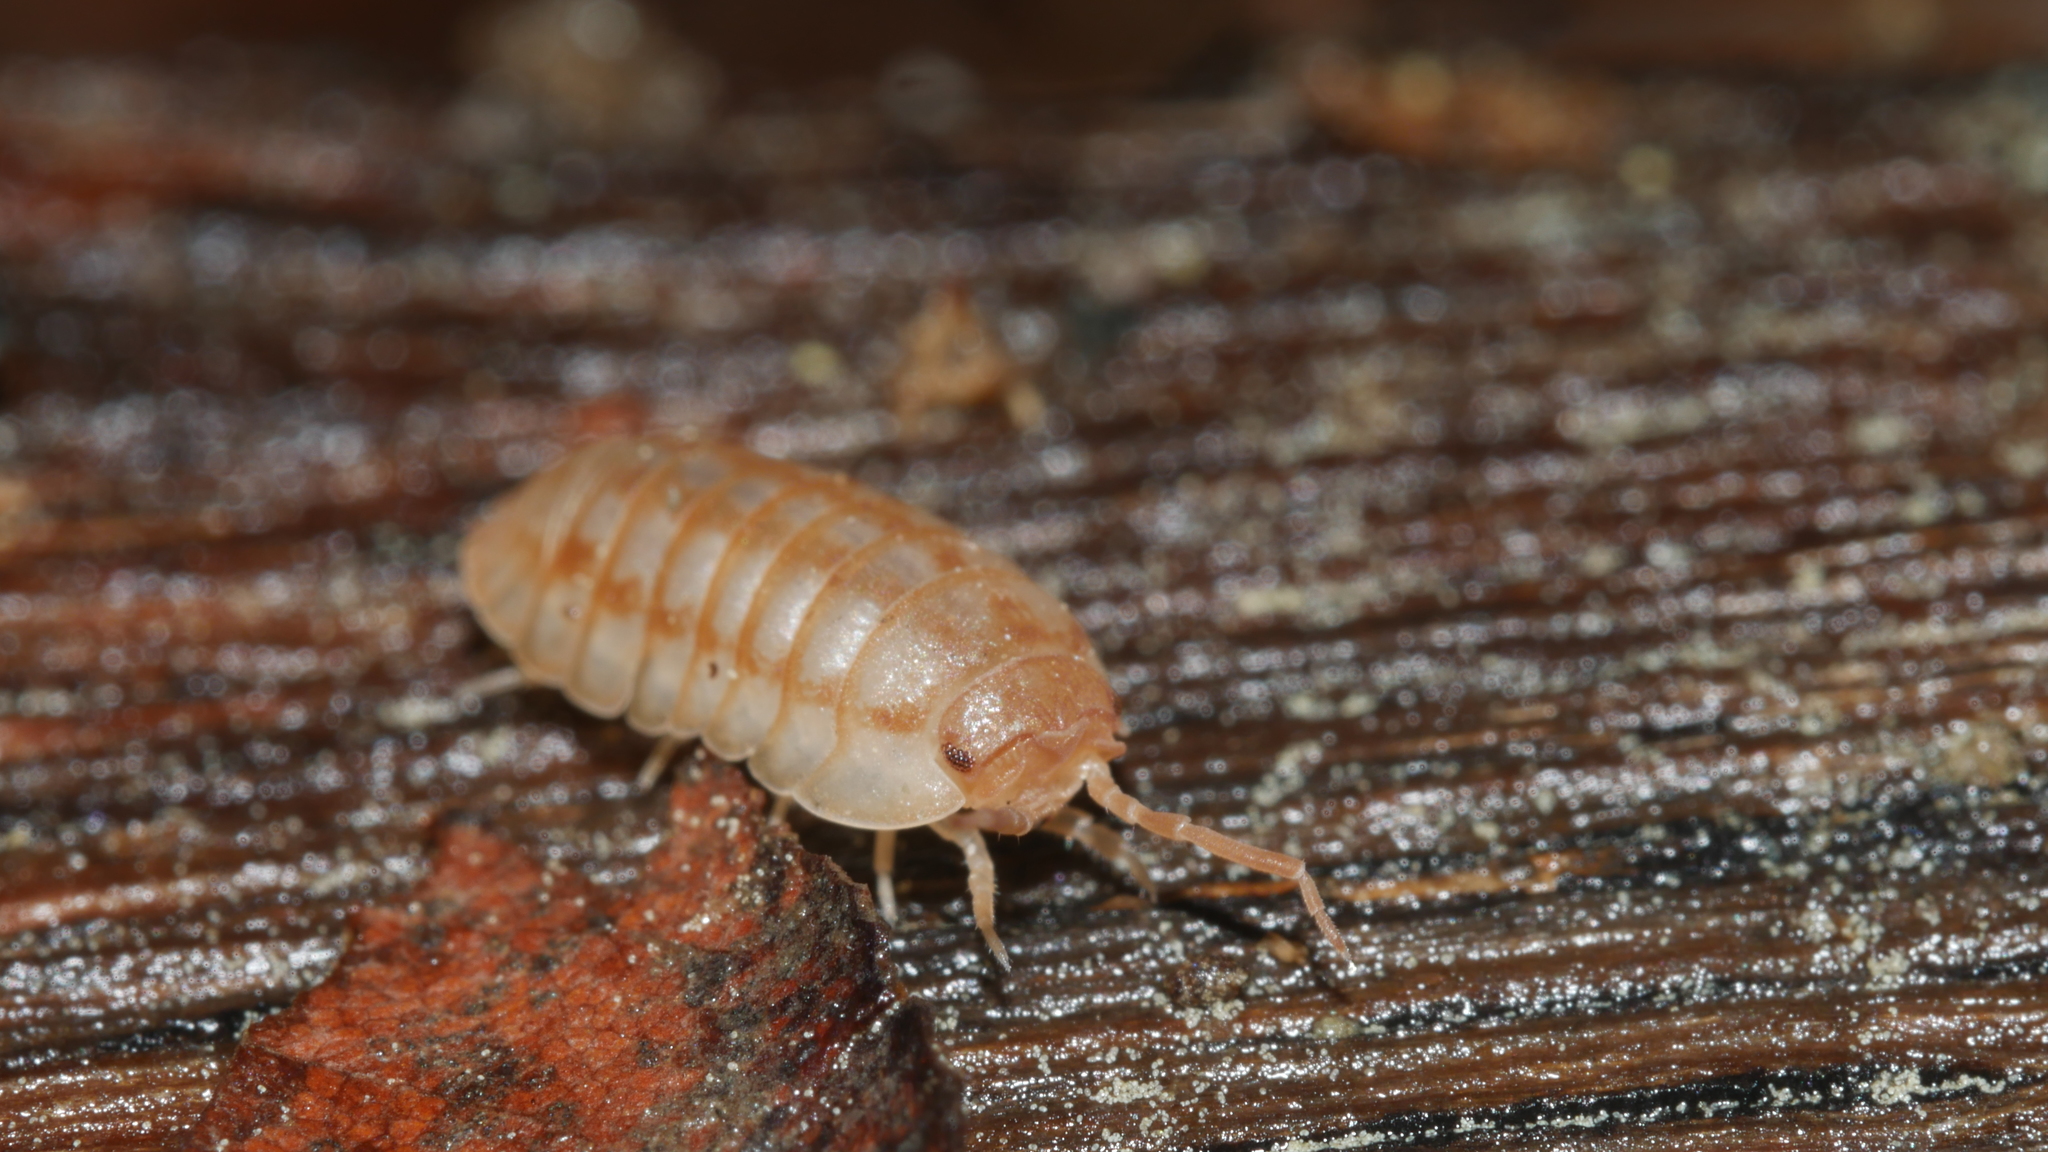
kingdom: Animalia
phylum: Arthropoda
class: Malacostraca
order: Isopoda
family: Armadillidiidae
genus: Armadillidium
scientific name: Armadillidium nasatum
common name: Isopod
